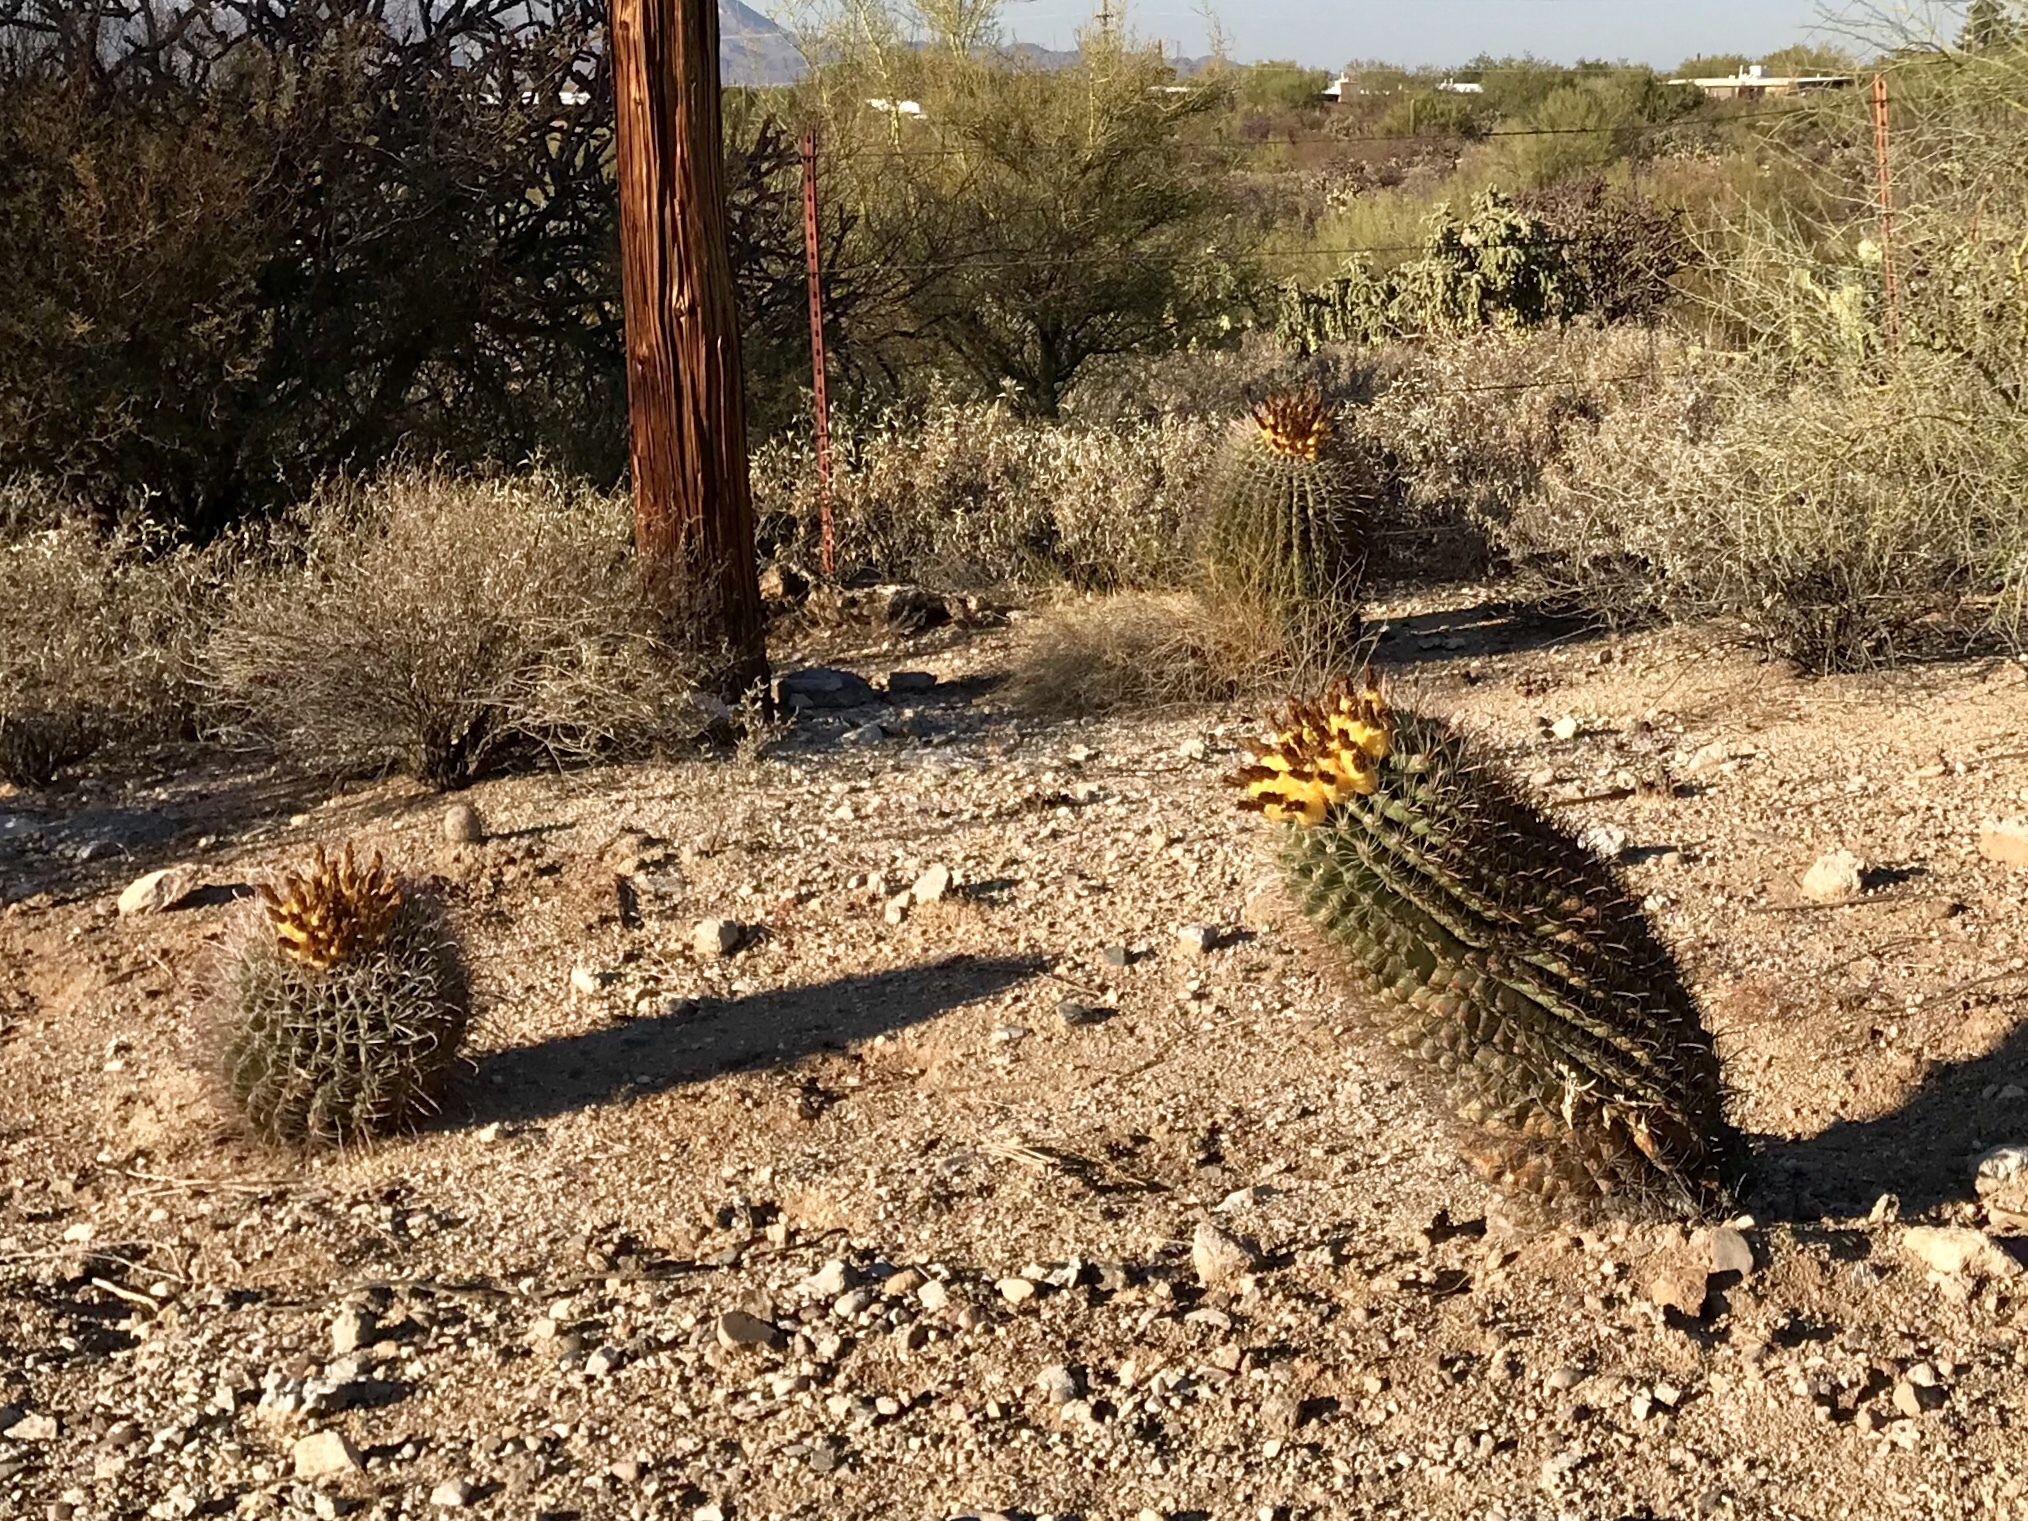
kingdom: Plantae
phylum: Tracheophyta
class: Magnoliopsida
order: Caryophyllales
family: Cactaceae
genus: Ferocactus
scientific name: Ferocactus wislizeni
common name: Candy barrel cactus
